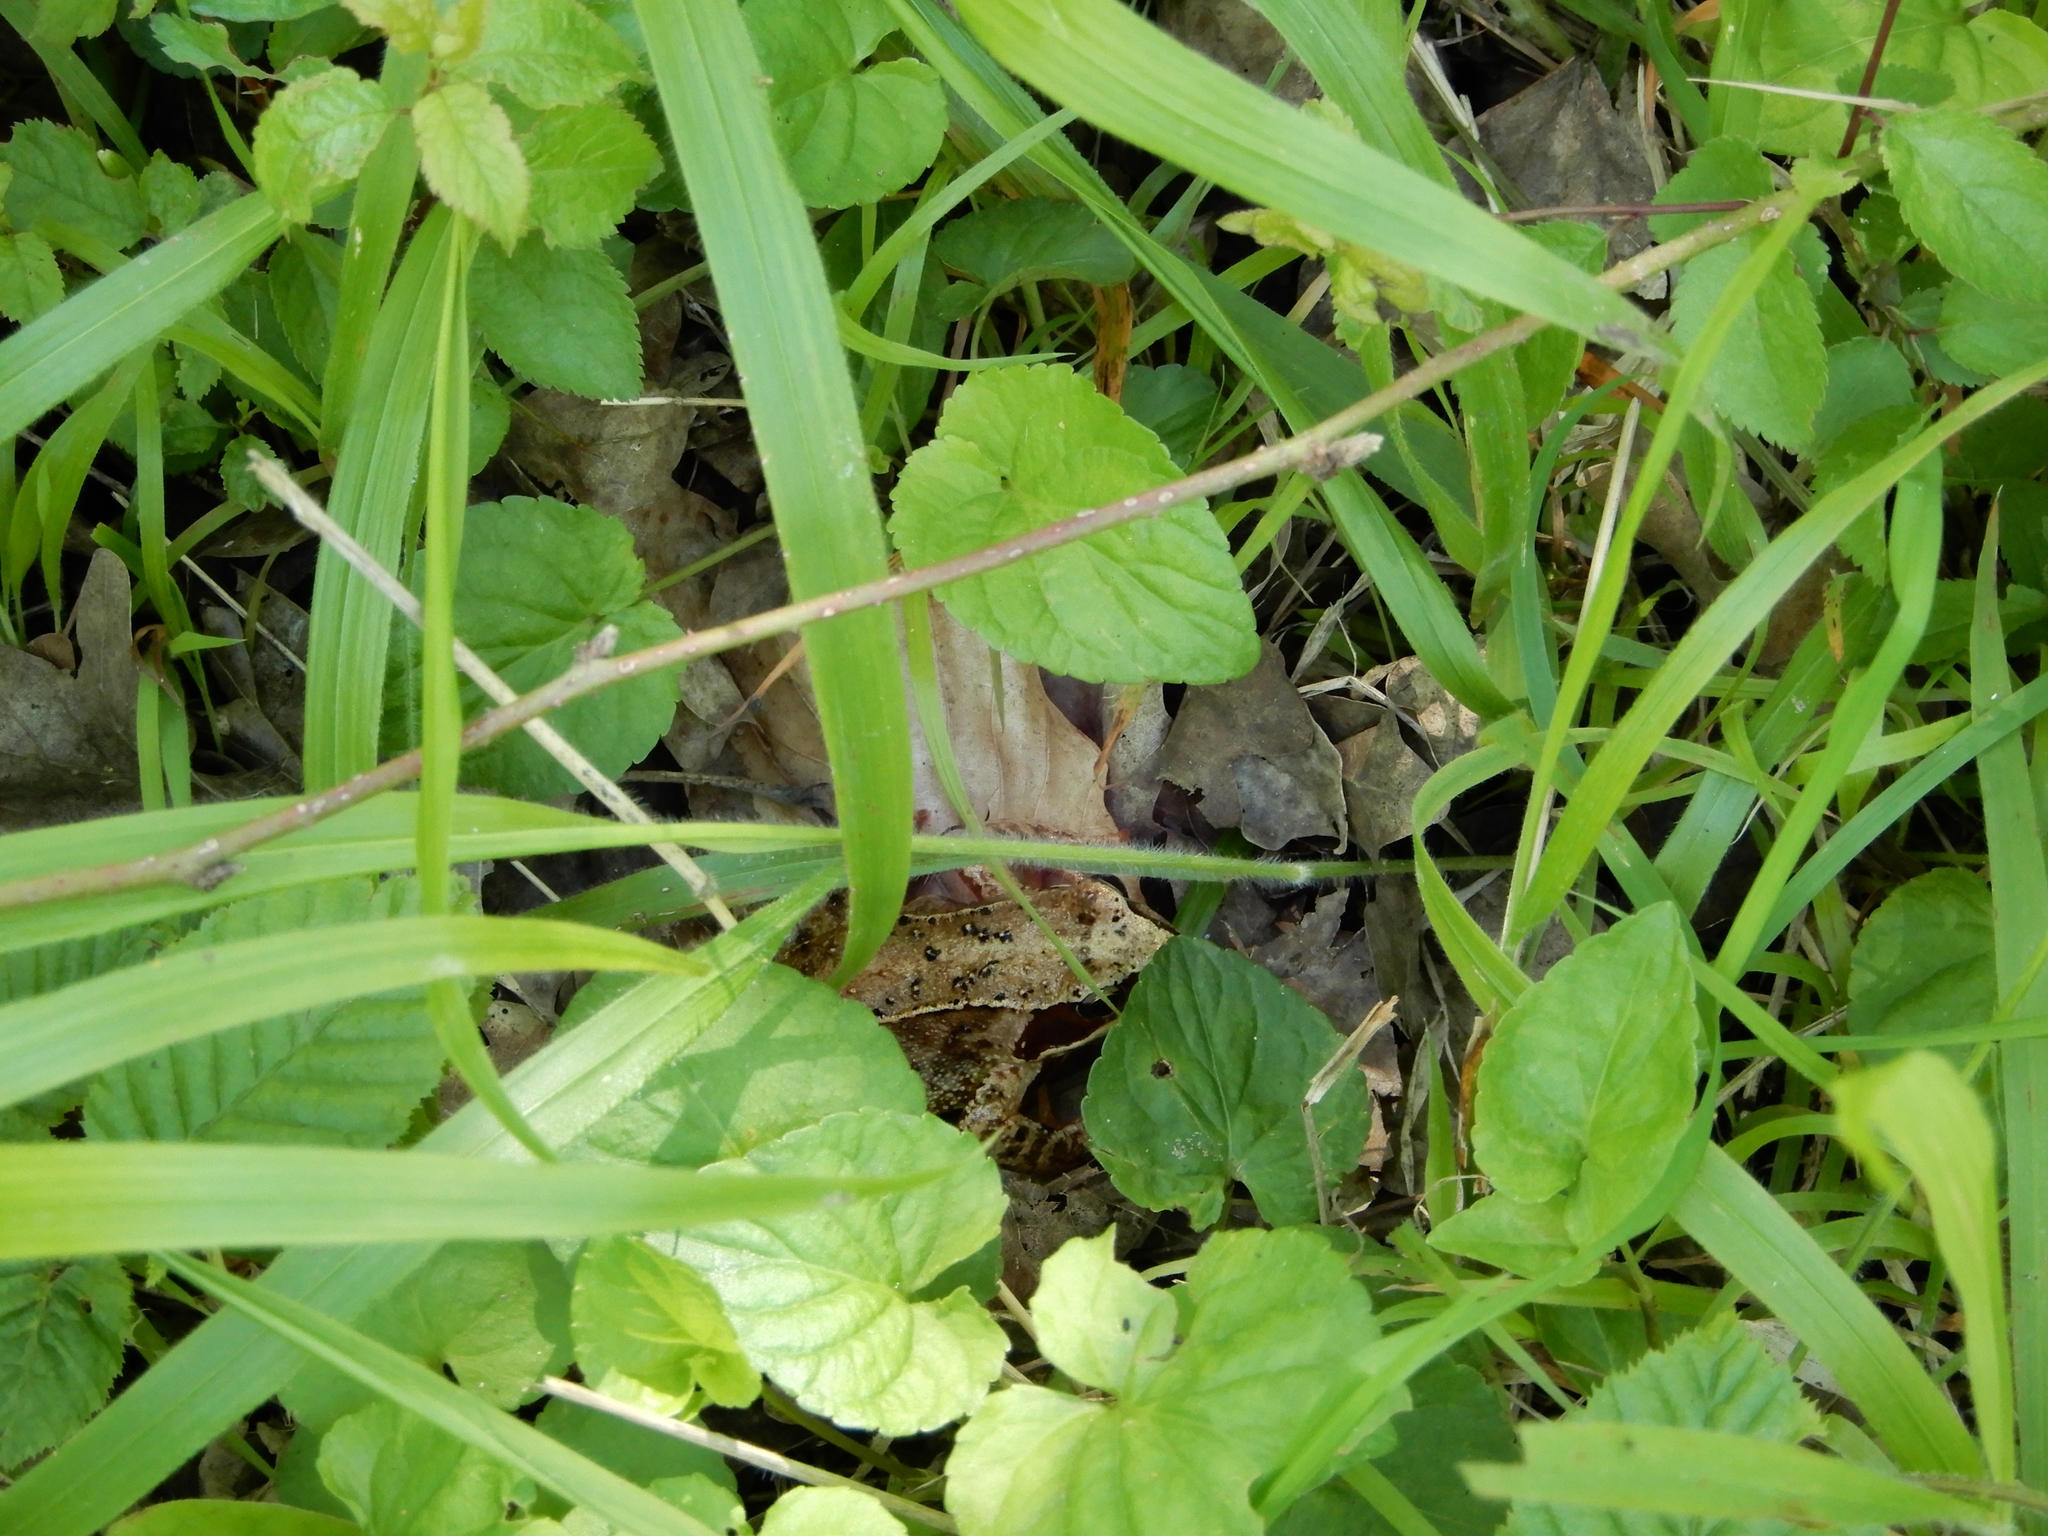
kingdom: Animalia
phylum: Chordata
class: Amphibia
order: Anura
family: Ranidae
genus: Rana
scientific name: Rana temporaria
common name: Common frog
